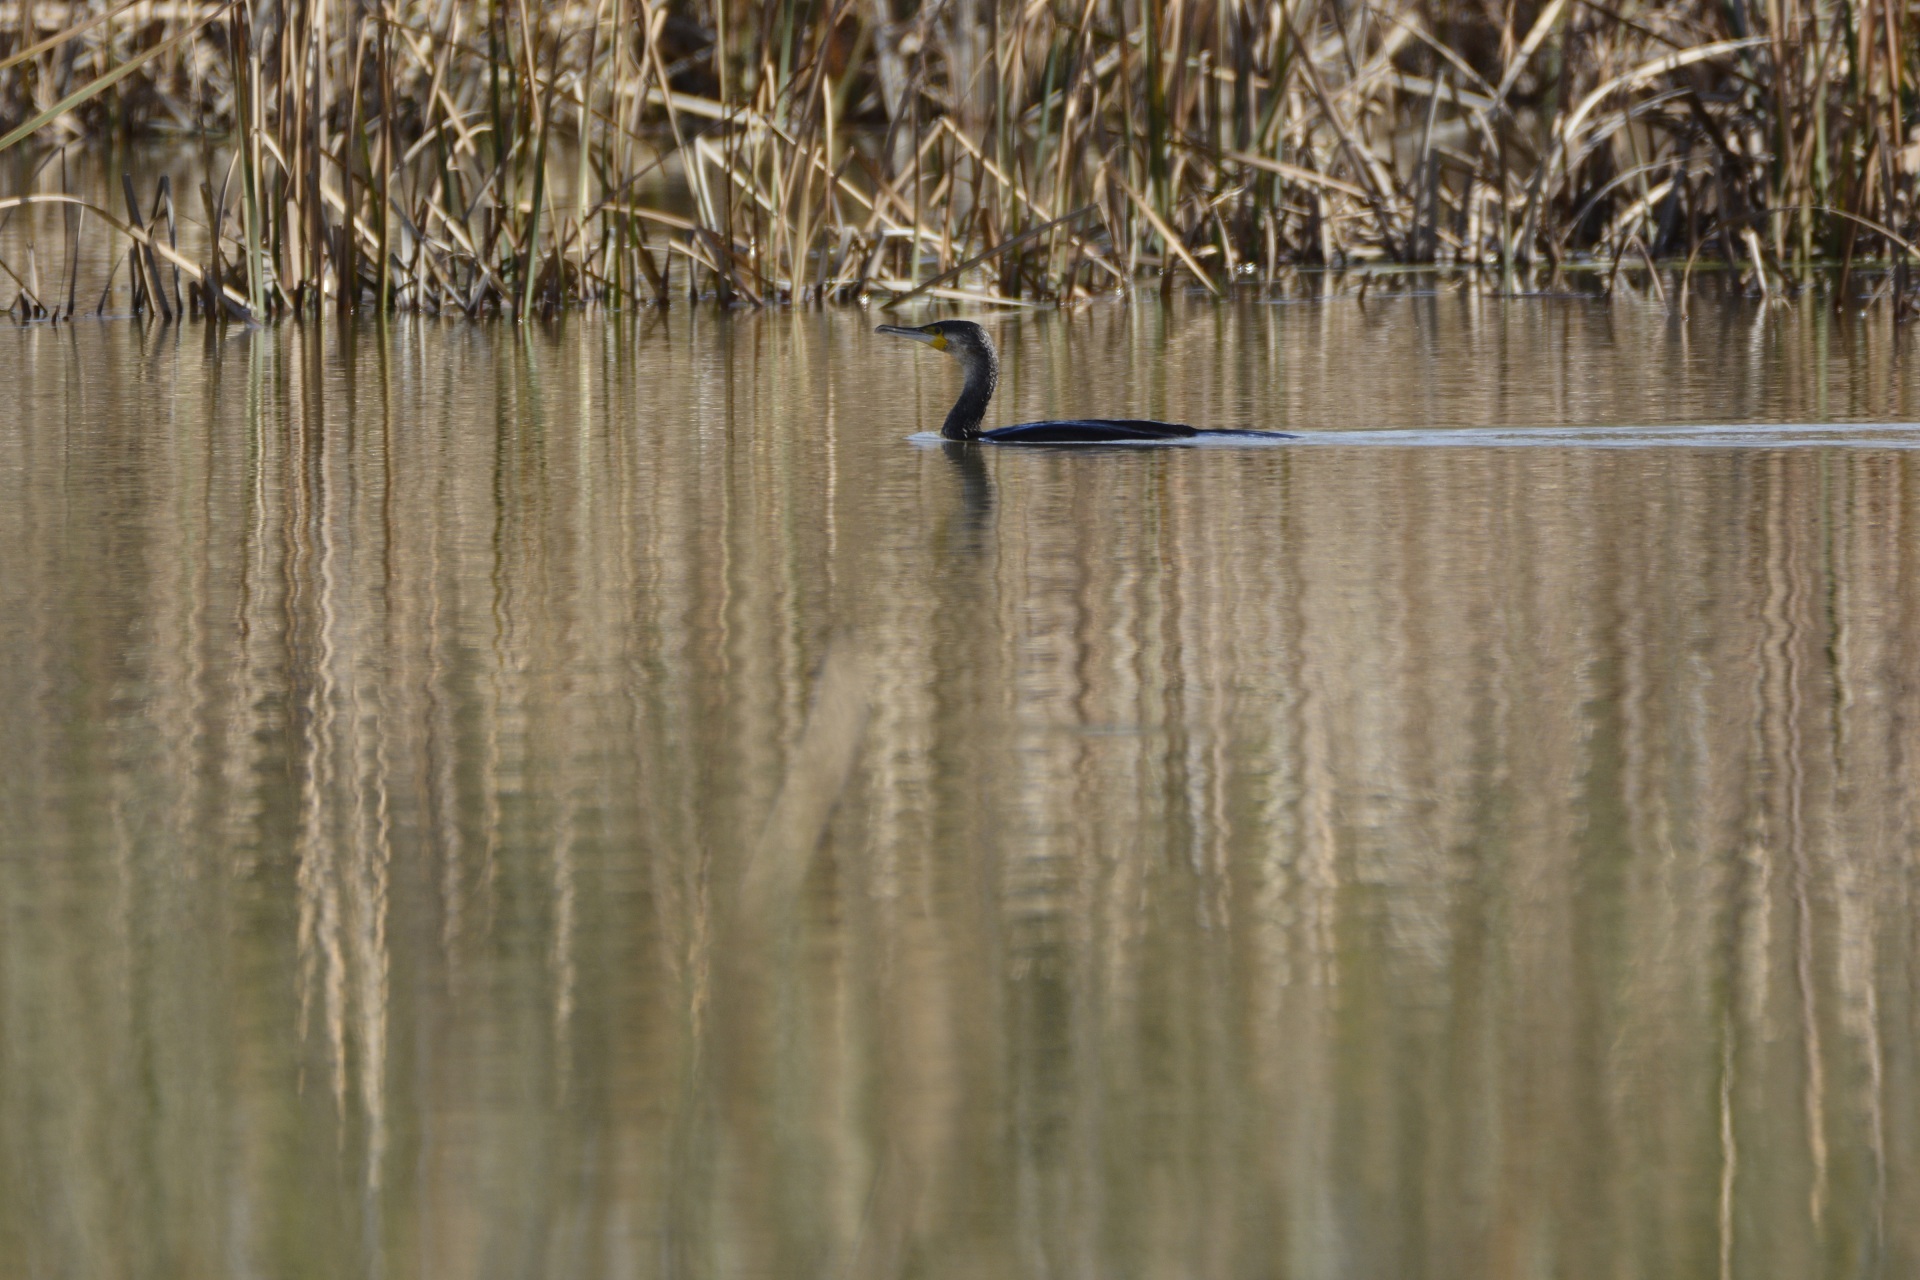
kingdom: Animalia
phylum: Chordata
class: Aves
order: Suliformes
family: Phalacrocoracidae
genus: Phalacrocorax
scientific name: Phalacrocorax carbo
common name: Great cormorant
